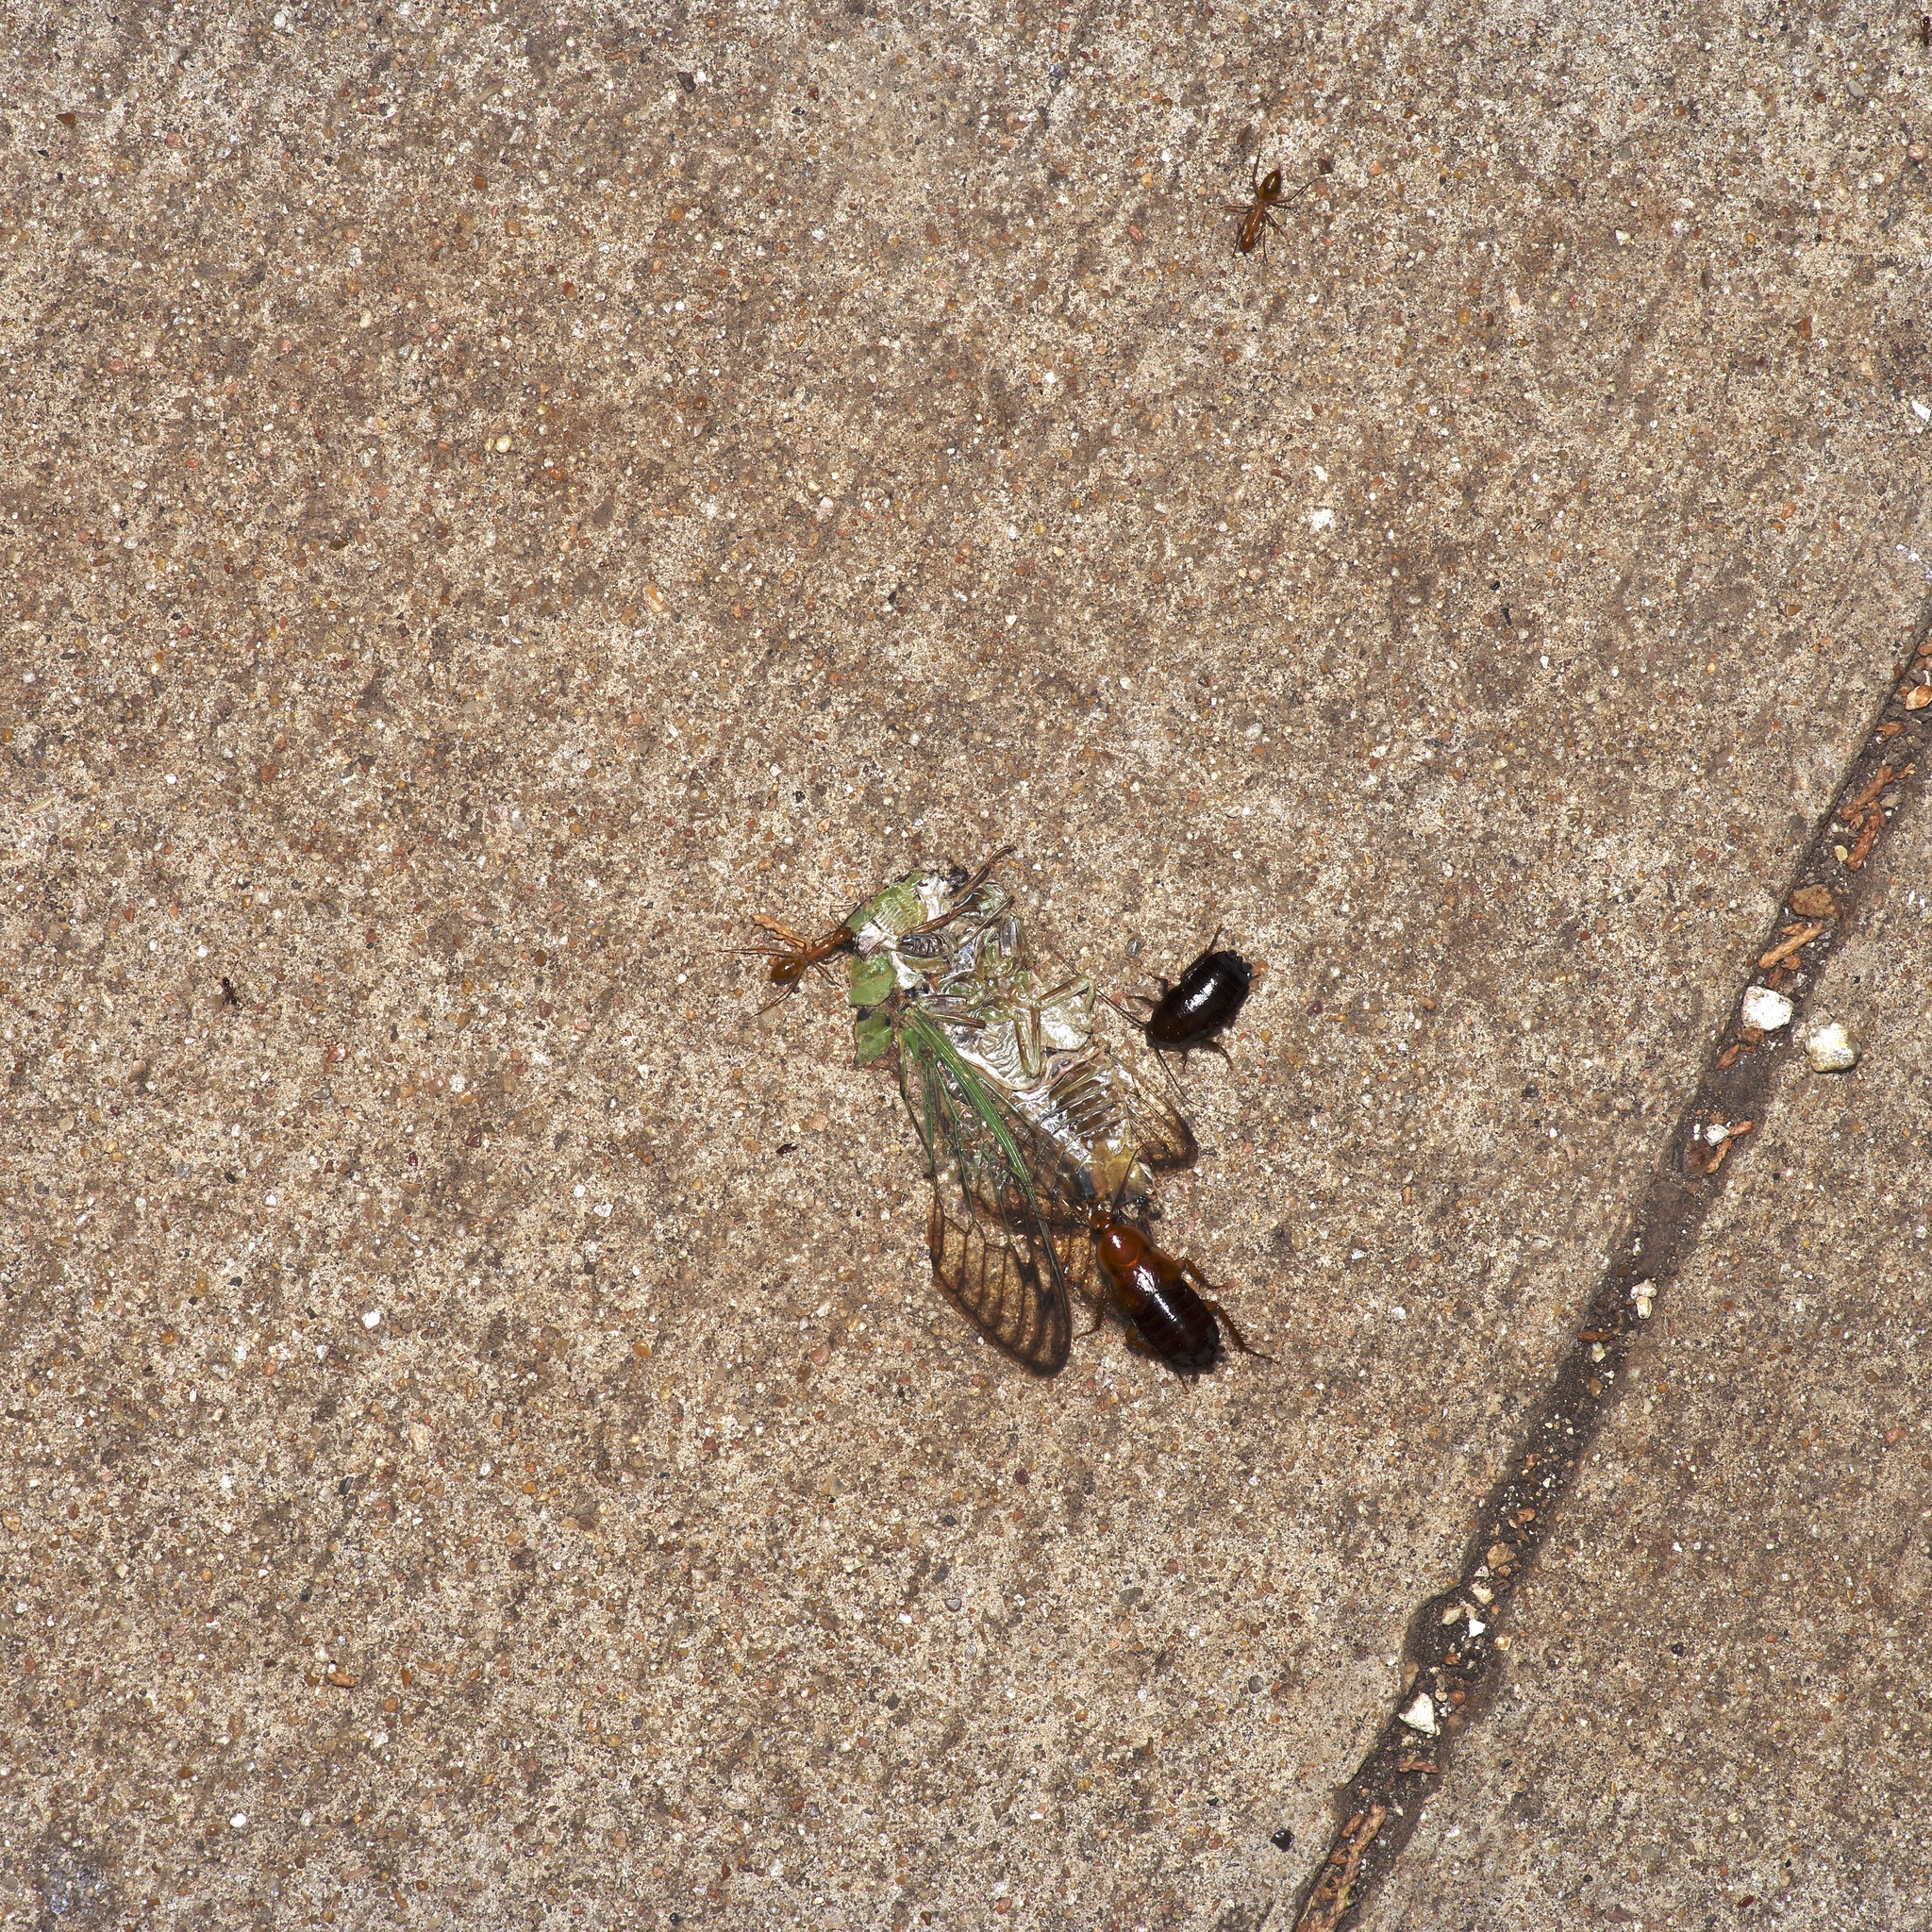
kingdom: Animalia
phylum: Arthropoda
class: Insecta
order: Hemiptera
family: Cicadidae
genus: Neotibicen
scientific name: Neotibicen superbus
